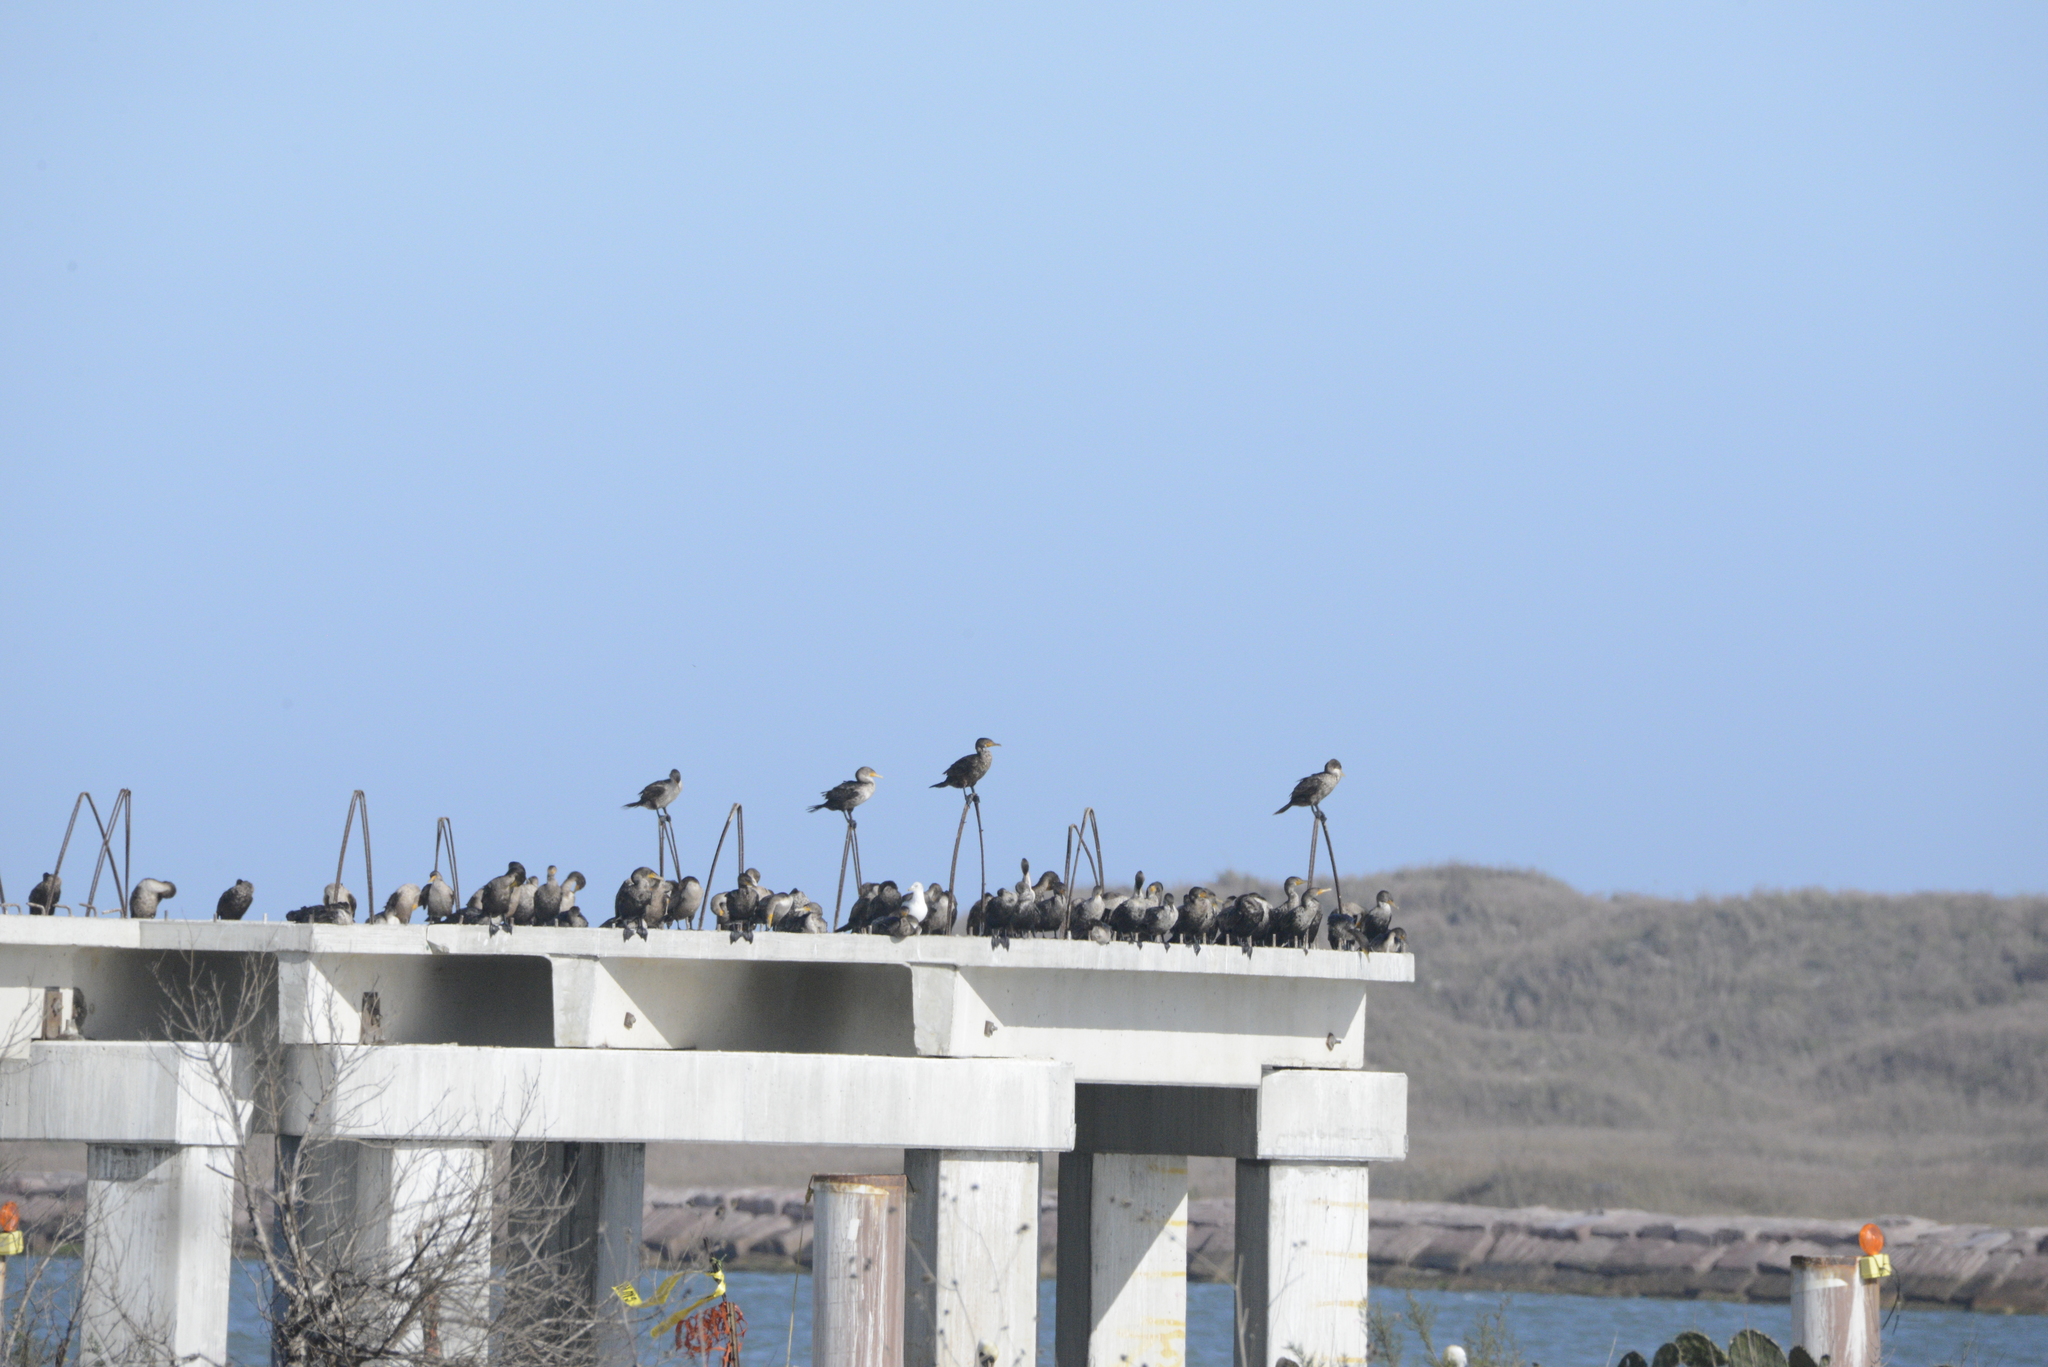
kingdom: Animalia
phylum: Chordata
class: Aves
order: Suliformes
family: Phalacrocoracidae
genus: Phalacrocorax
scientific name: Phalacrocorax auritus
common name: Double-crested cormorant
